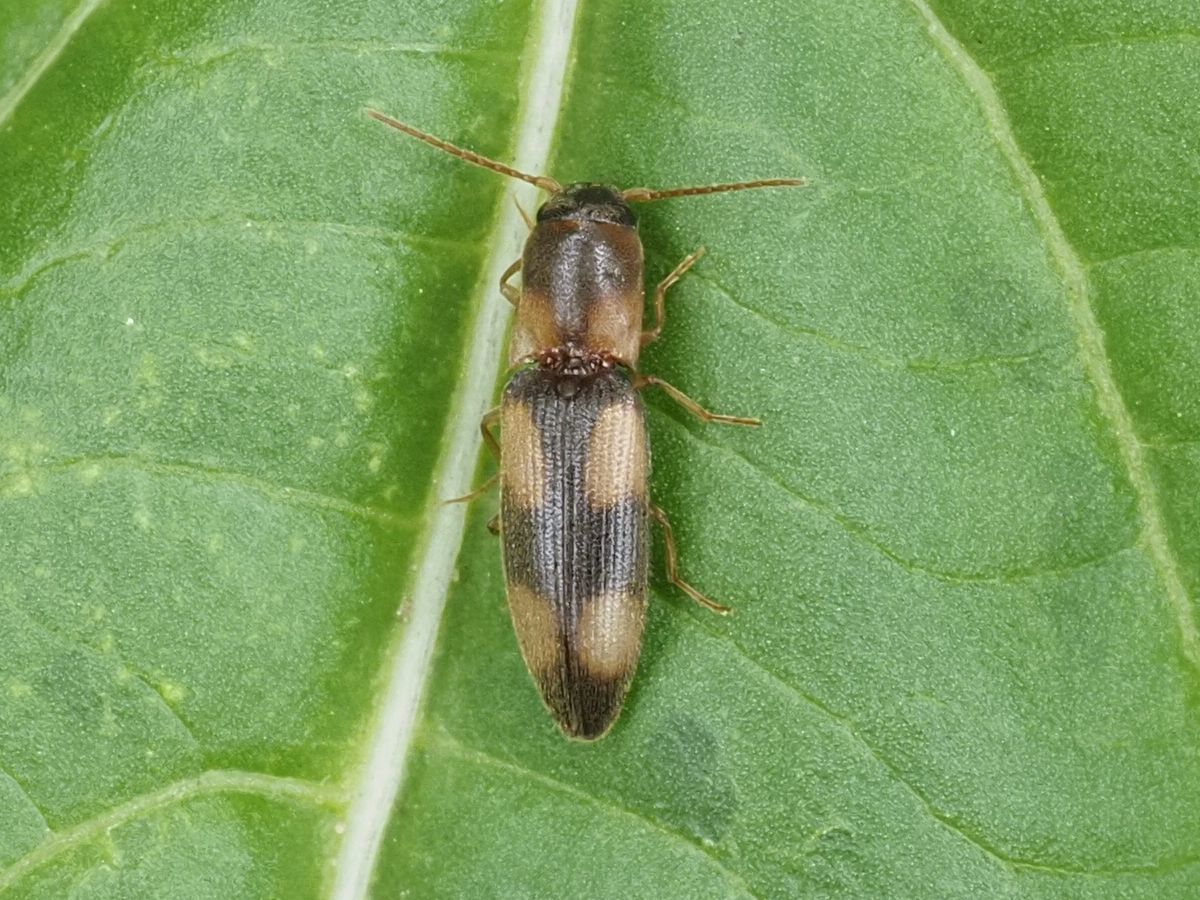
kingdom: Animalia
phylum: Arthropoda
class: Insecta
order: Coleoptera
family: Elateridae
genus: Betarmon
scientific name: Betarmon bisbimaculatus
